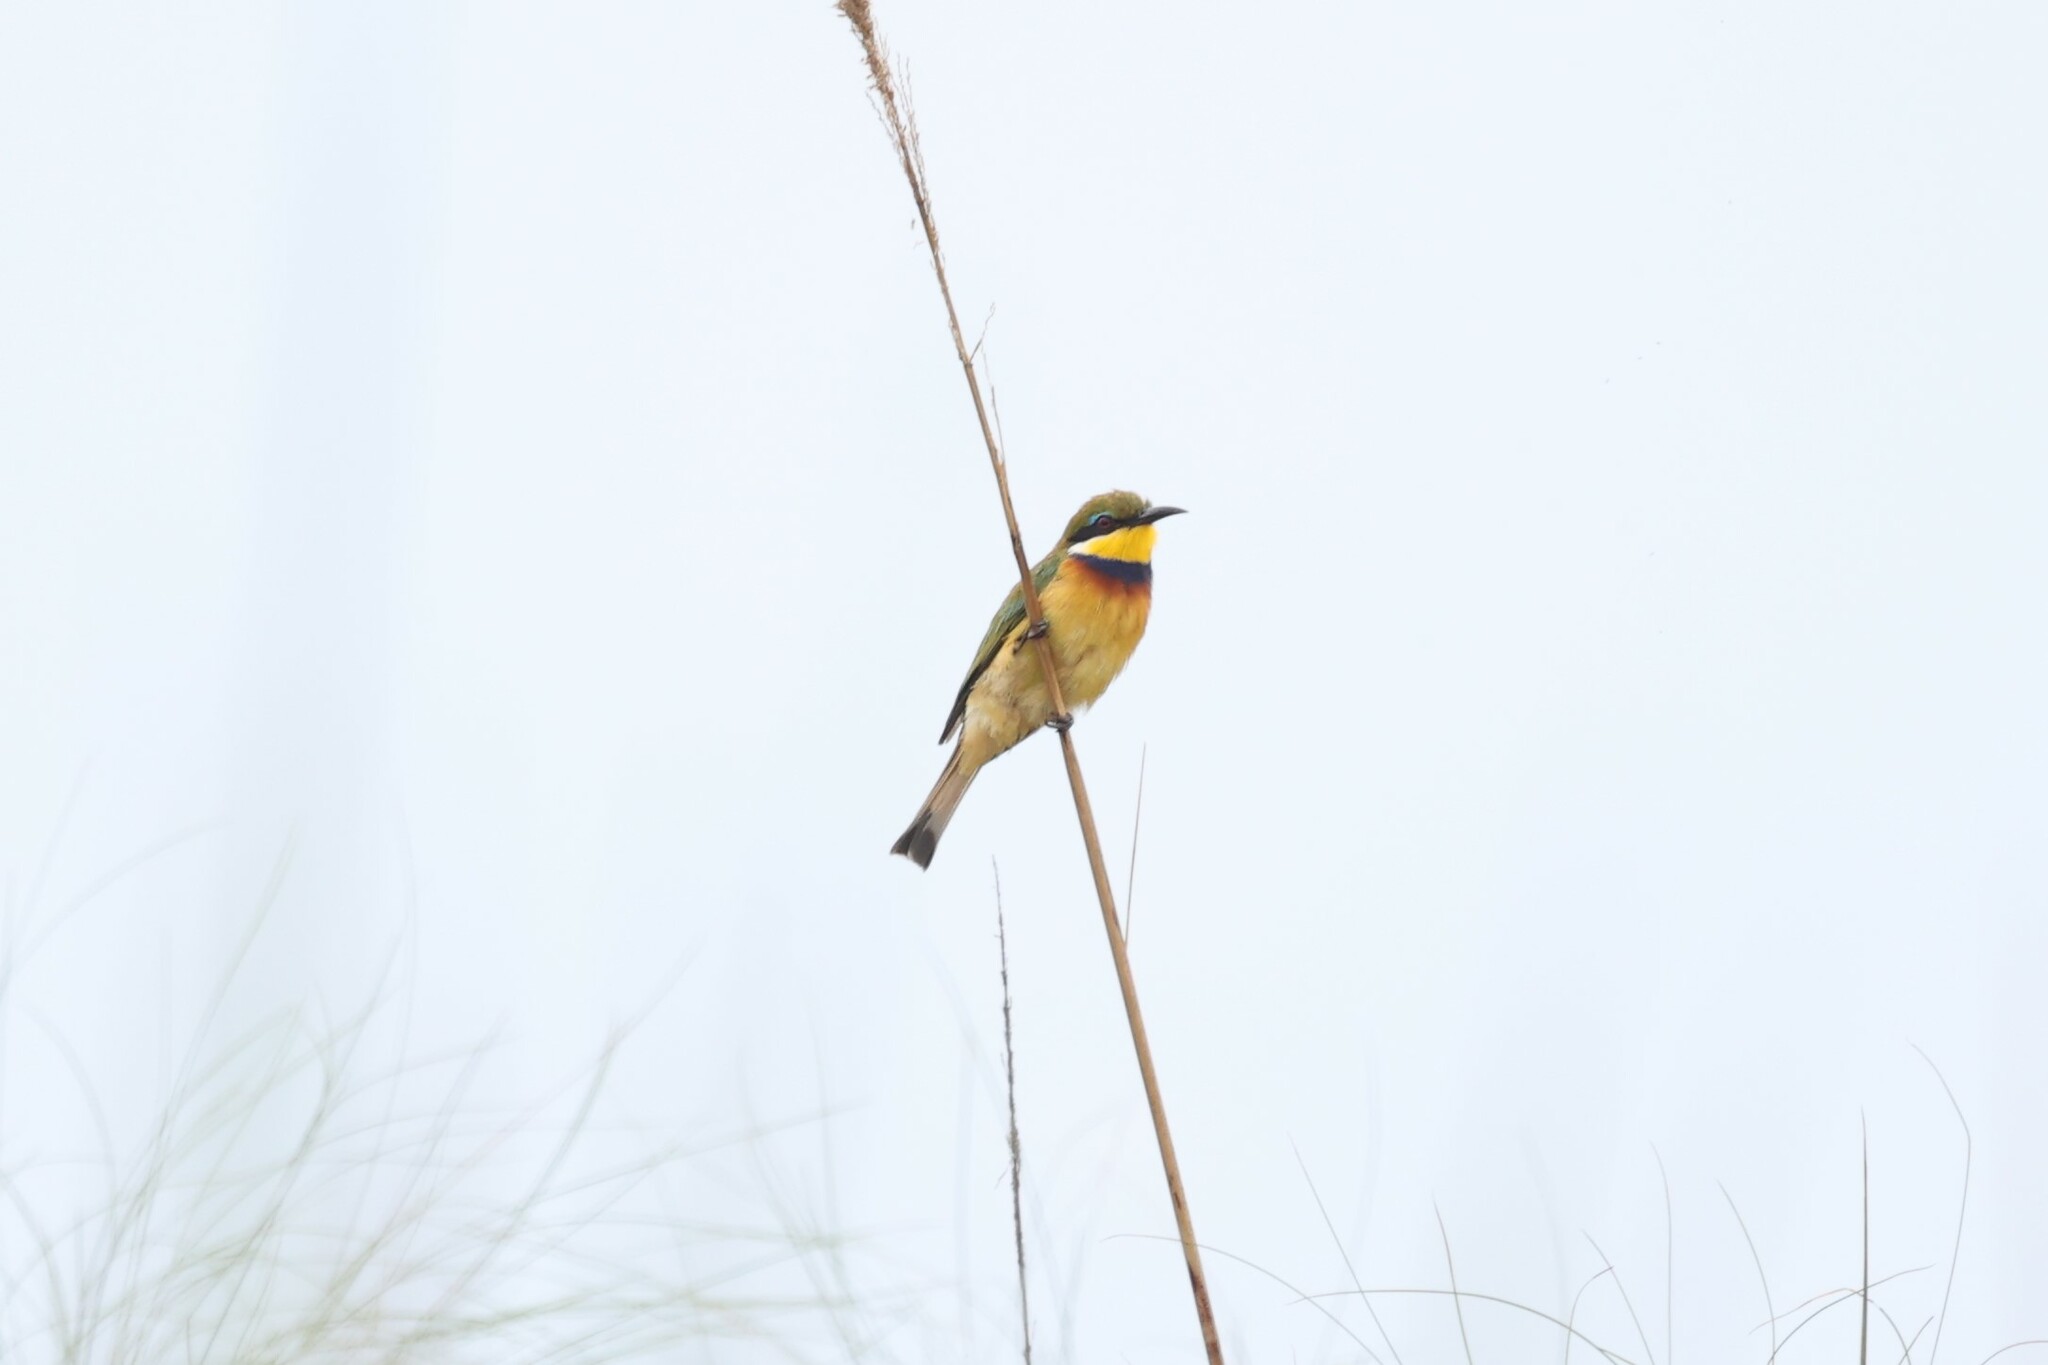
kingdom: Animalia
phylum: Chordata
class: Aves
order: Coraciiformes
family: Meropidae
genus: Merops
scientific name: Merops variegatus
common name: Blue-breasted bee-eater
